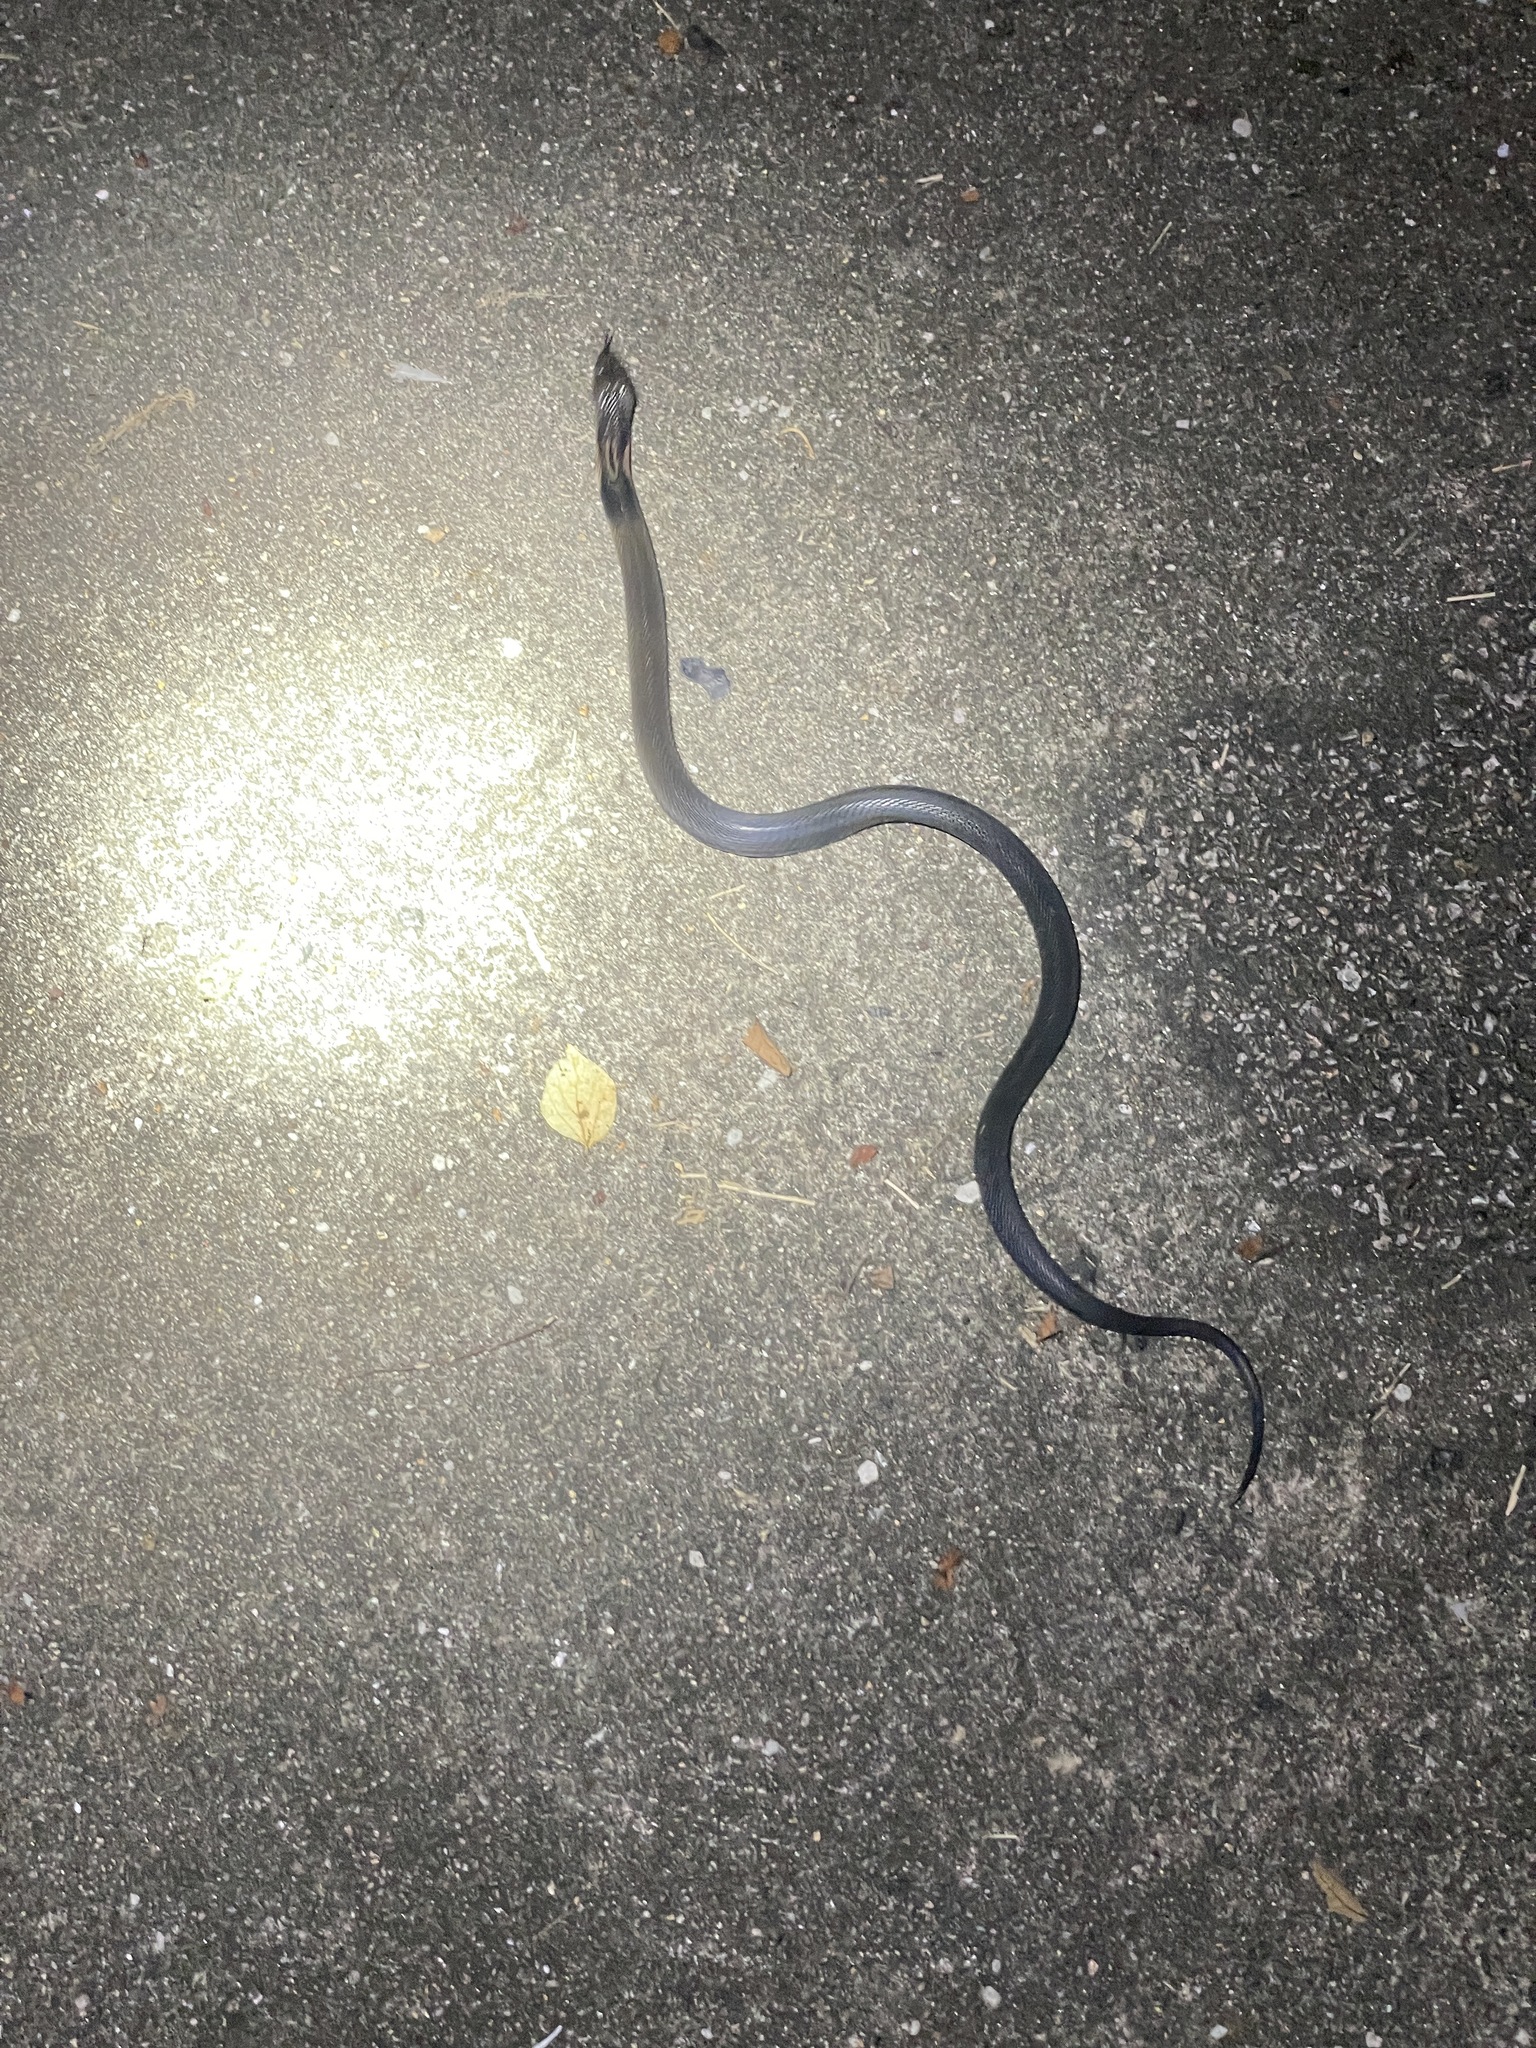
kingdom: Animalia
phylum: Chordata
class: Squamata
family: Elapidae
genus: Naja
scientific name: Naja atra
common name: Chinese cobra
